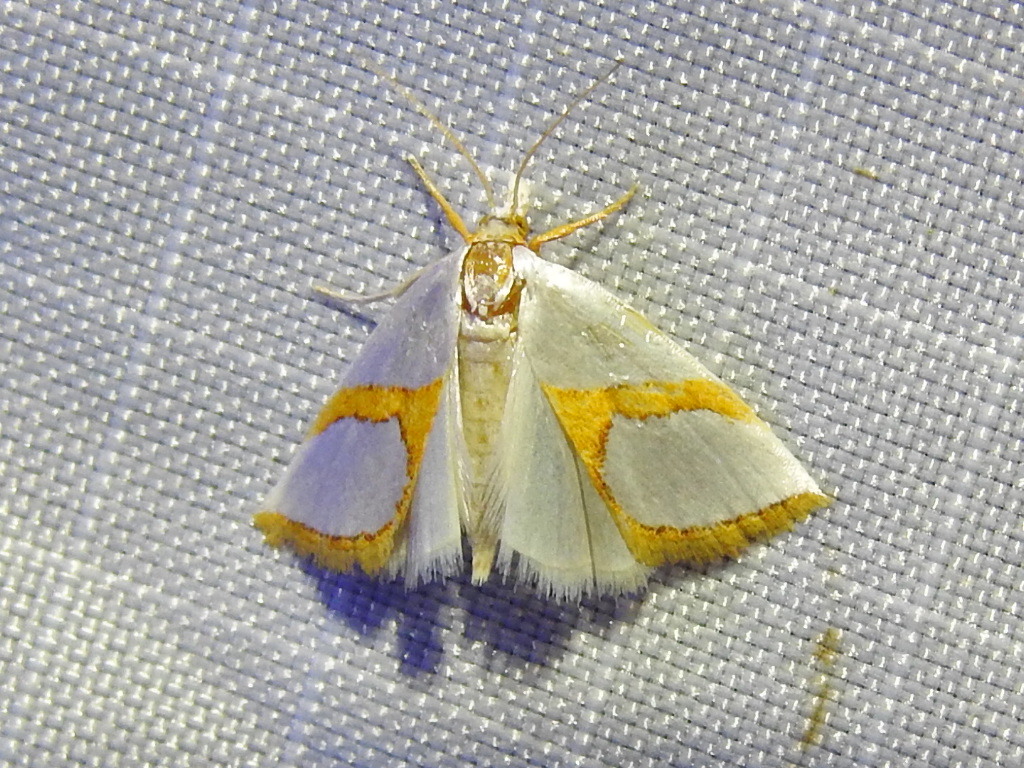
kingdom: Animalia
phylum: Arthropoda
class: Insecta
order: Lepidoptera
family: Crambidae
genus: Argyria
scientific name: Argyria auratella
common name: Curve-lined argyria moth
